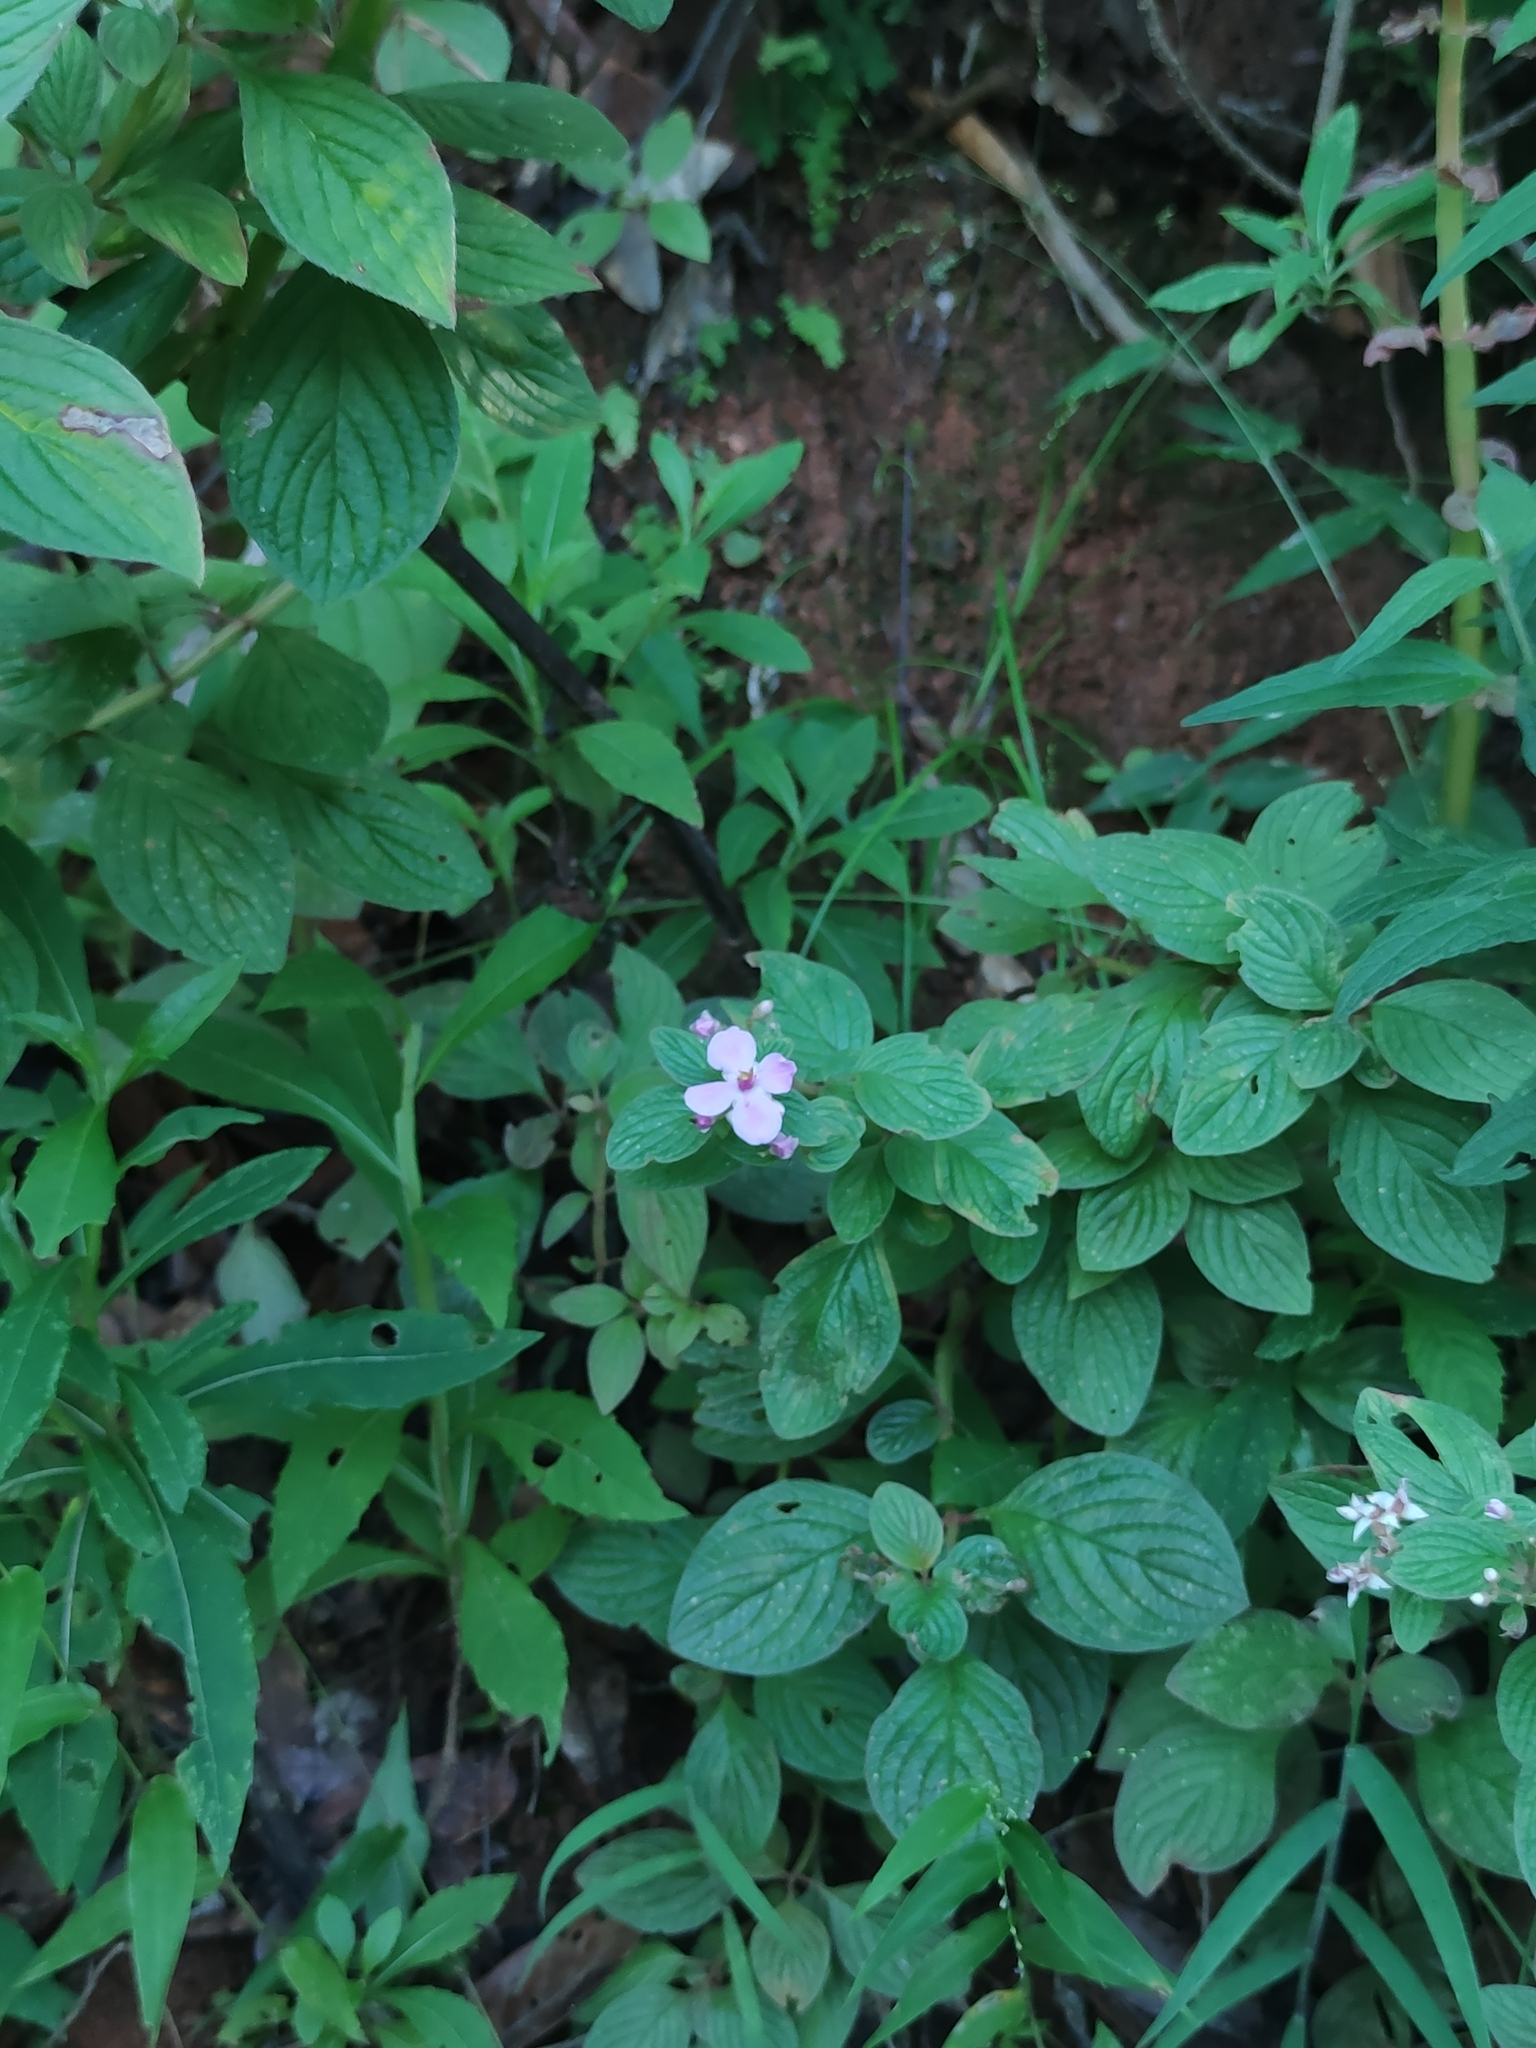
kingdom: Plantae
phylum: Tracheophyta
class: Magnoliopsida
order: Myrtales
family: Melastomataceae
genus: Heterocentron
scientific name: Heterocentron subtriplinervium
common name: Pearl flower
